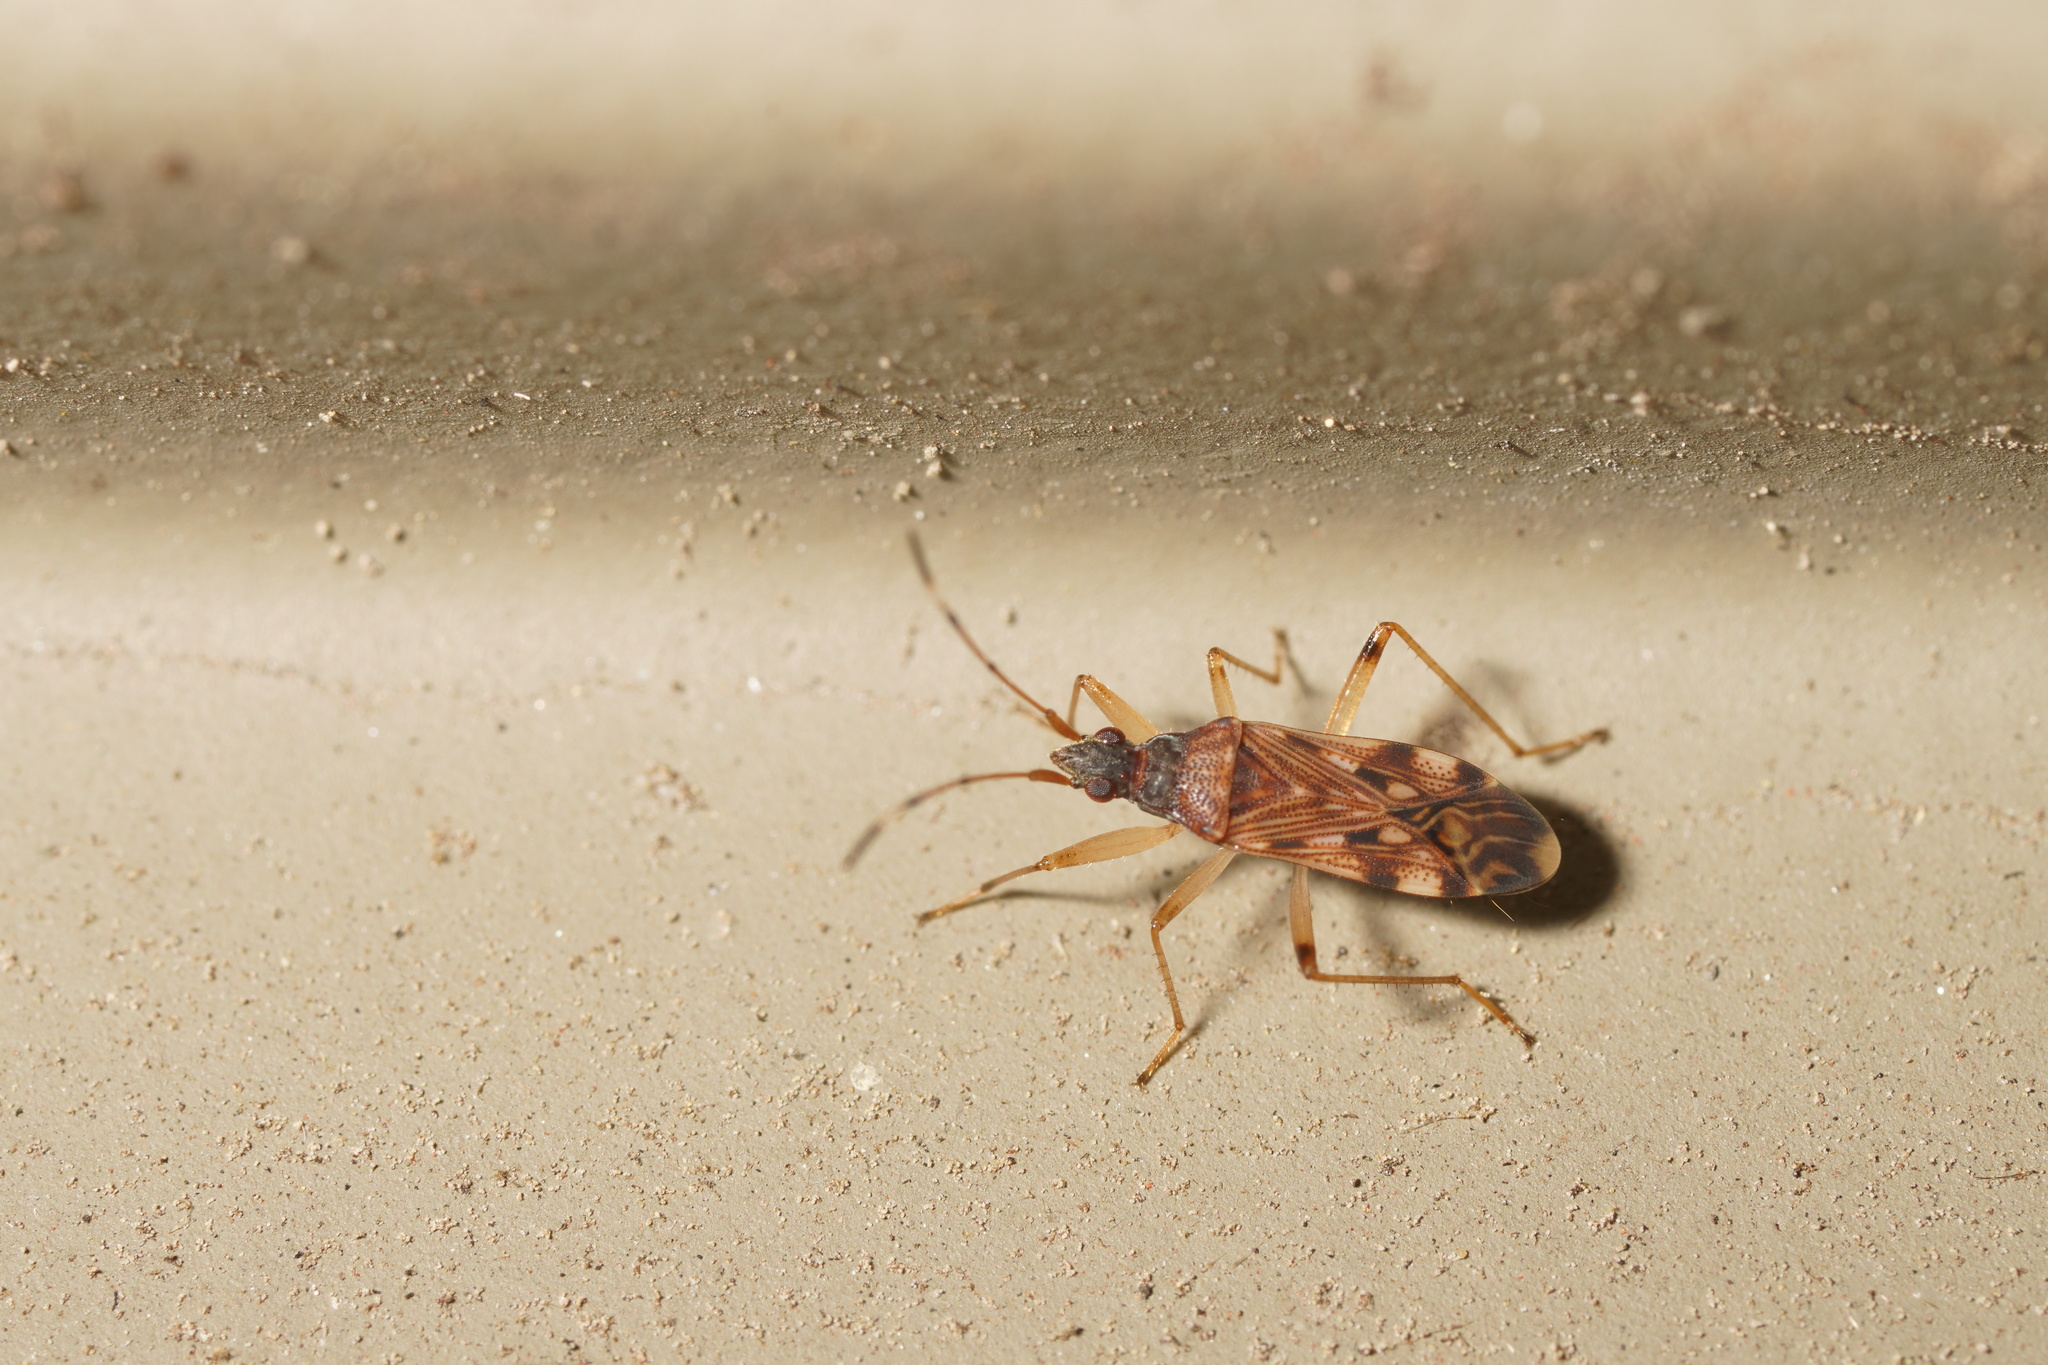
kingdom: Animalia
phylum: Arthropoda
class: Insecta
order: Hemiptera
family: Rhyparochromidae
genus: Ozophora
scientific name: Ozophora picturata
